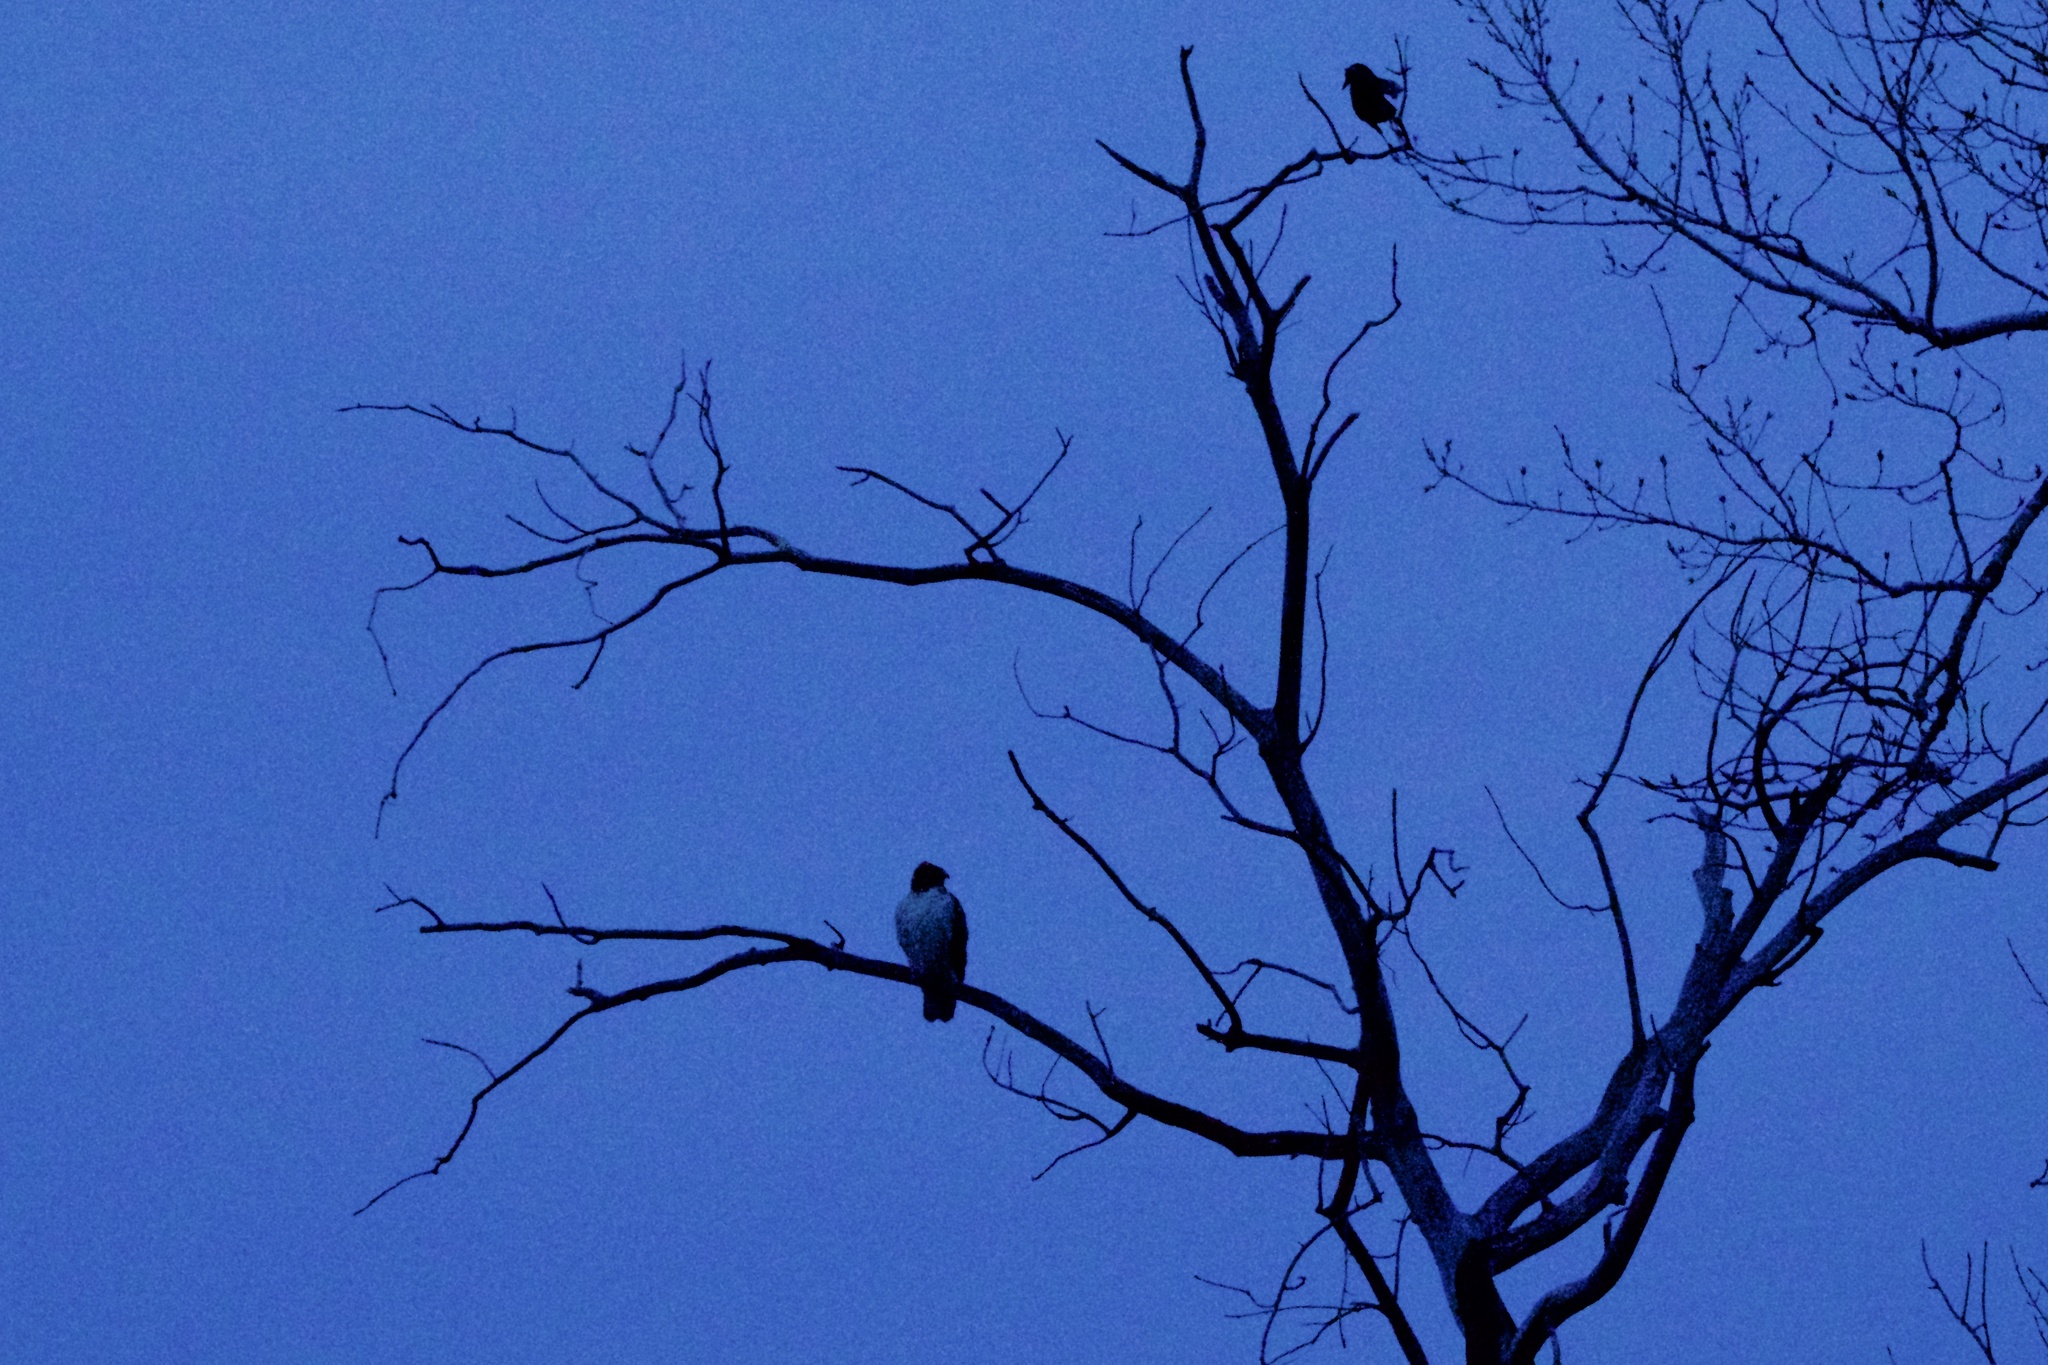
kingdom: Animalia
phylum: Chordata
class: Aves
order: Accipitriformes
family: Accipitridae
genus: Buteo
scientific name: Buteo jamaicensis
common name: Red-tailed hawk
